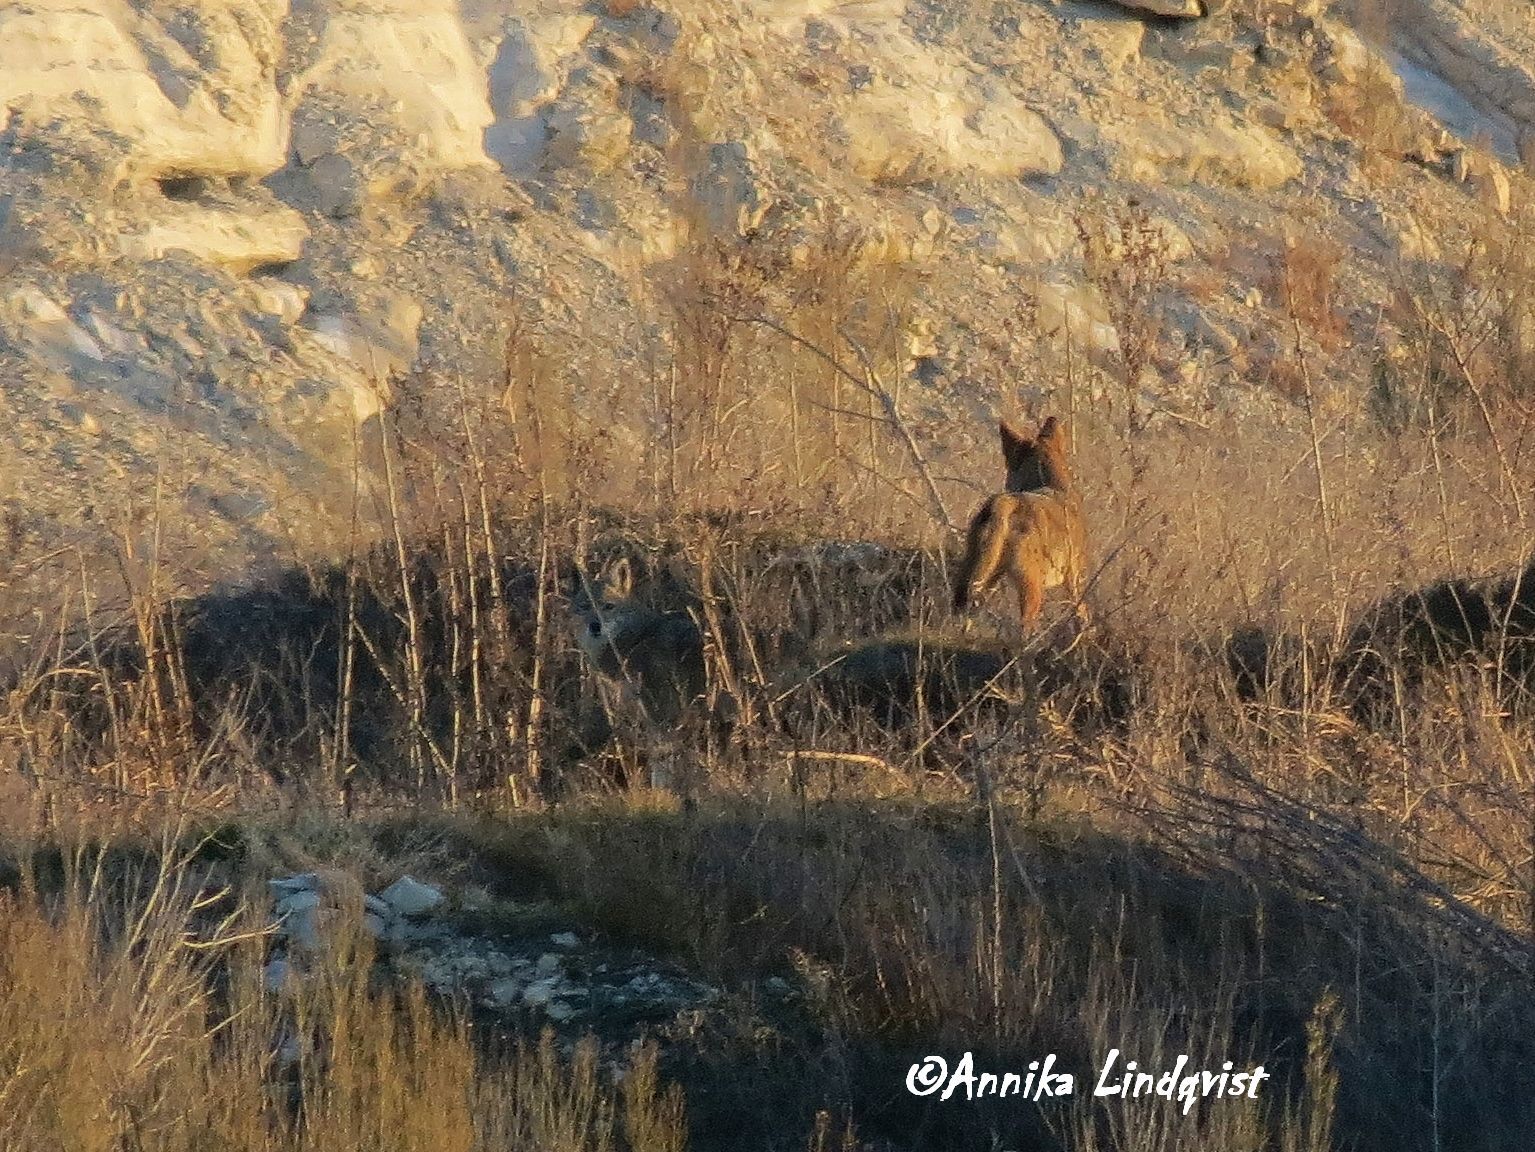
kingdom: Animalia
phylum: Chordata
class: Mammalia
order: Carnivora
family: Canidae
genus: Canis
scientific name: Canis latrans
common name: Coyote
